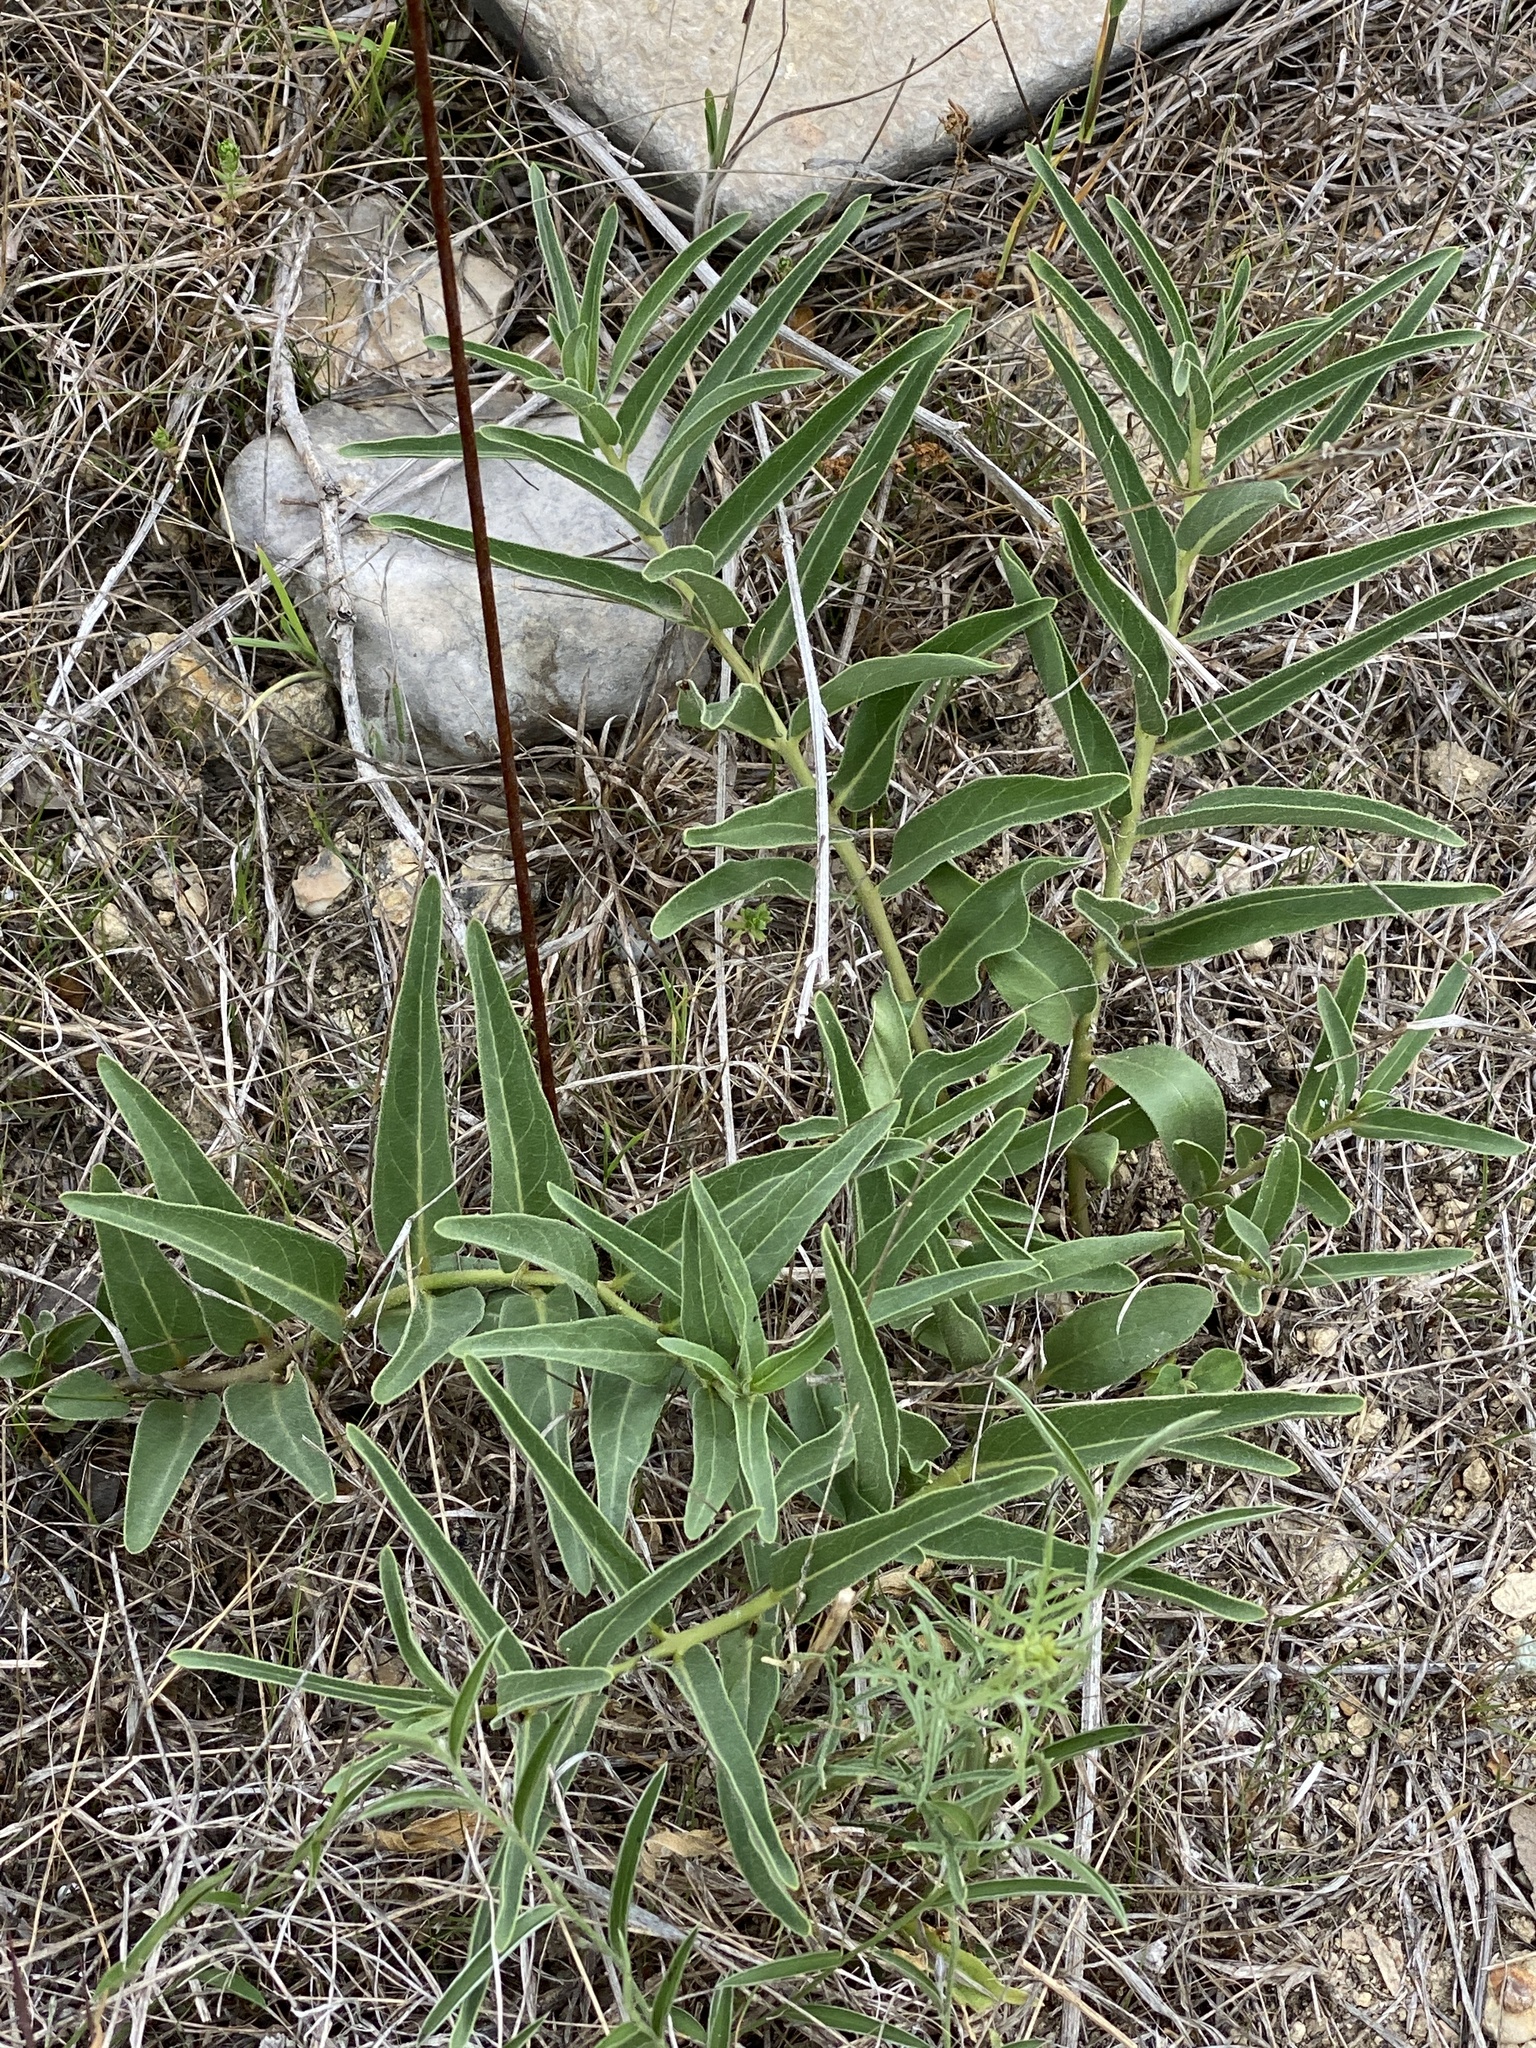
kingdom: Plantae
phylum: Tracheophyta
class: Magnoliopsida
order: Gentianales
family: Apocynaceae
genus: Asclepias
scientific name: Asclepias asperula
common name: Antelope horns
